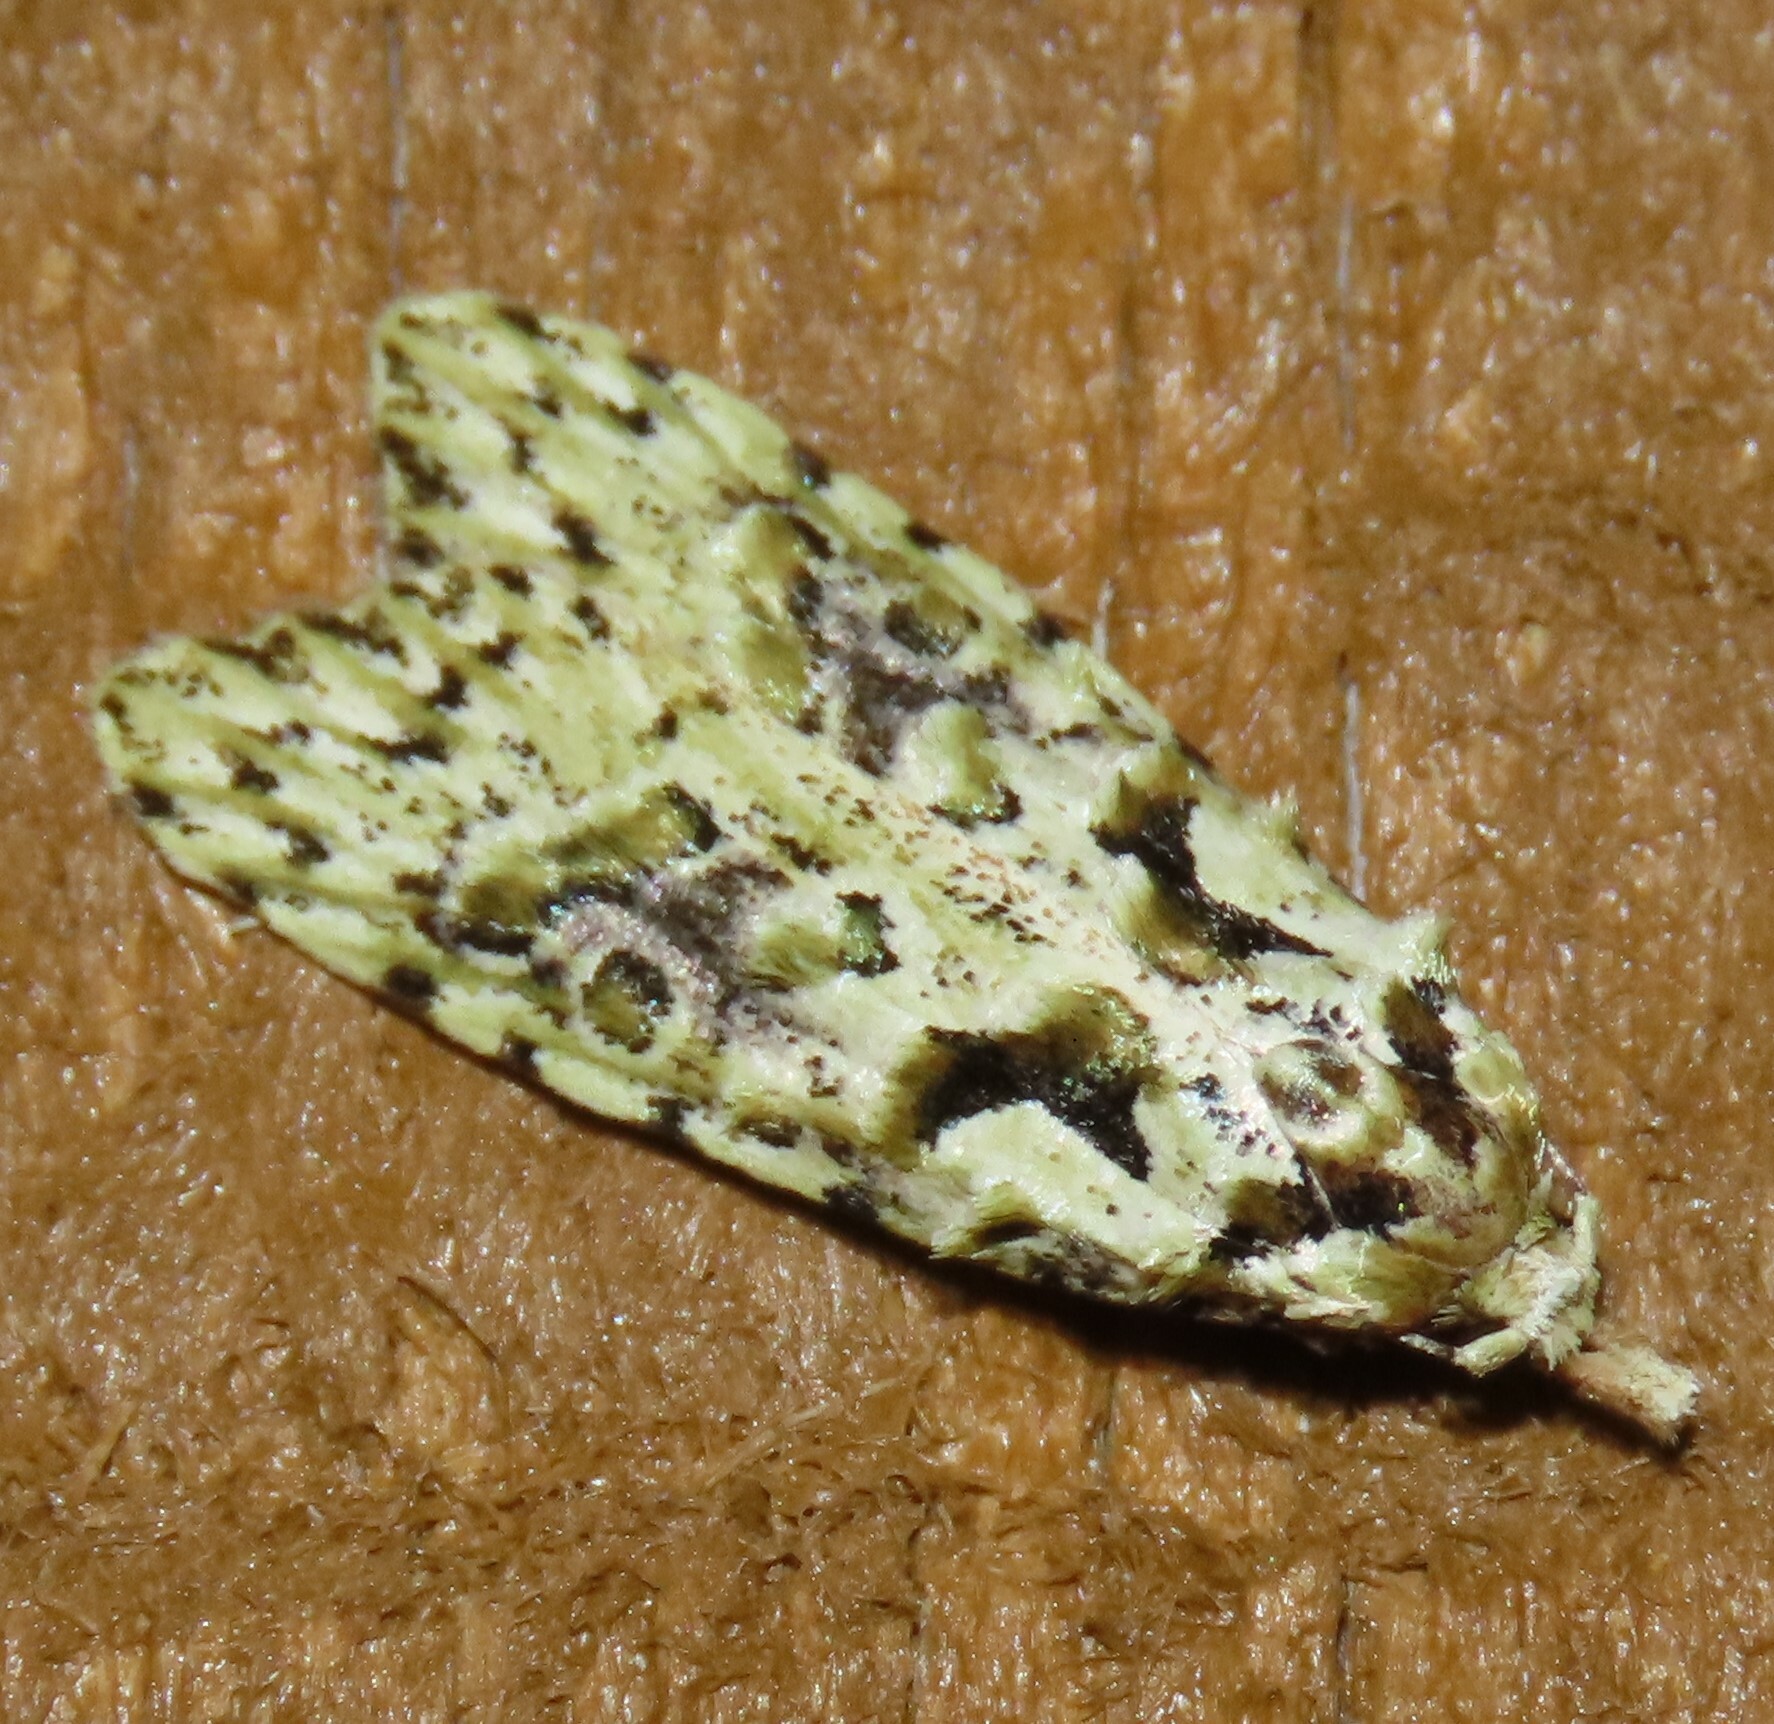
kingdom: Animalia
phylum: Arthropoda
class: Insecta
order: Lepidoptera
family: Carposinidae
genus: Carposina
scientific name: Carposina Heterocrossa eriphylla
